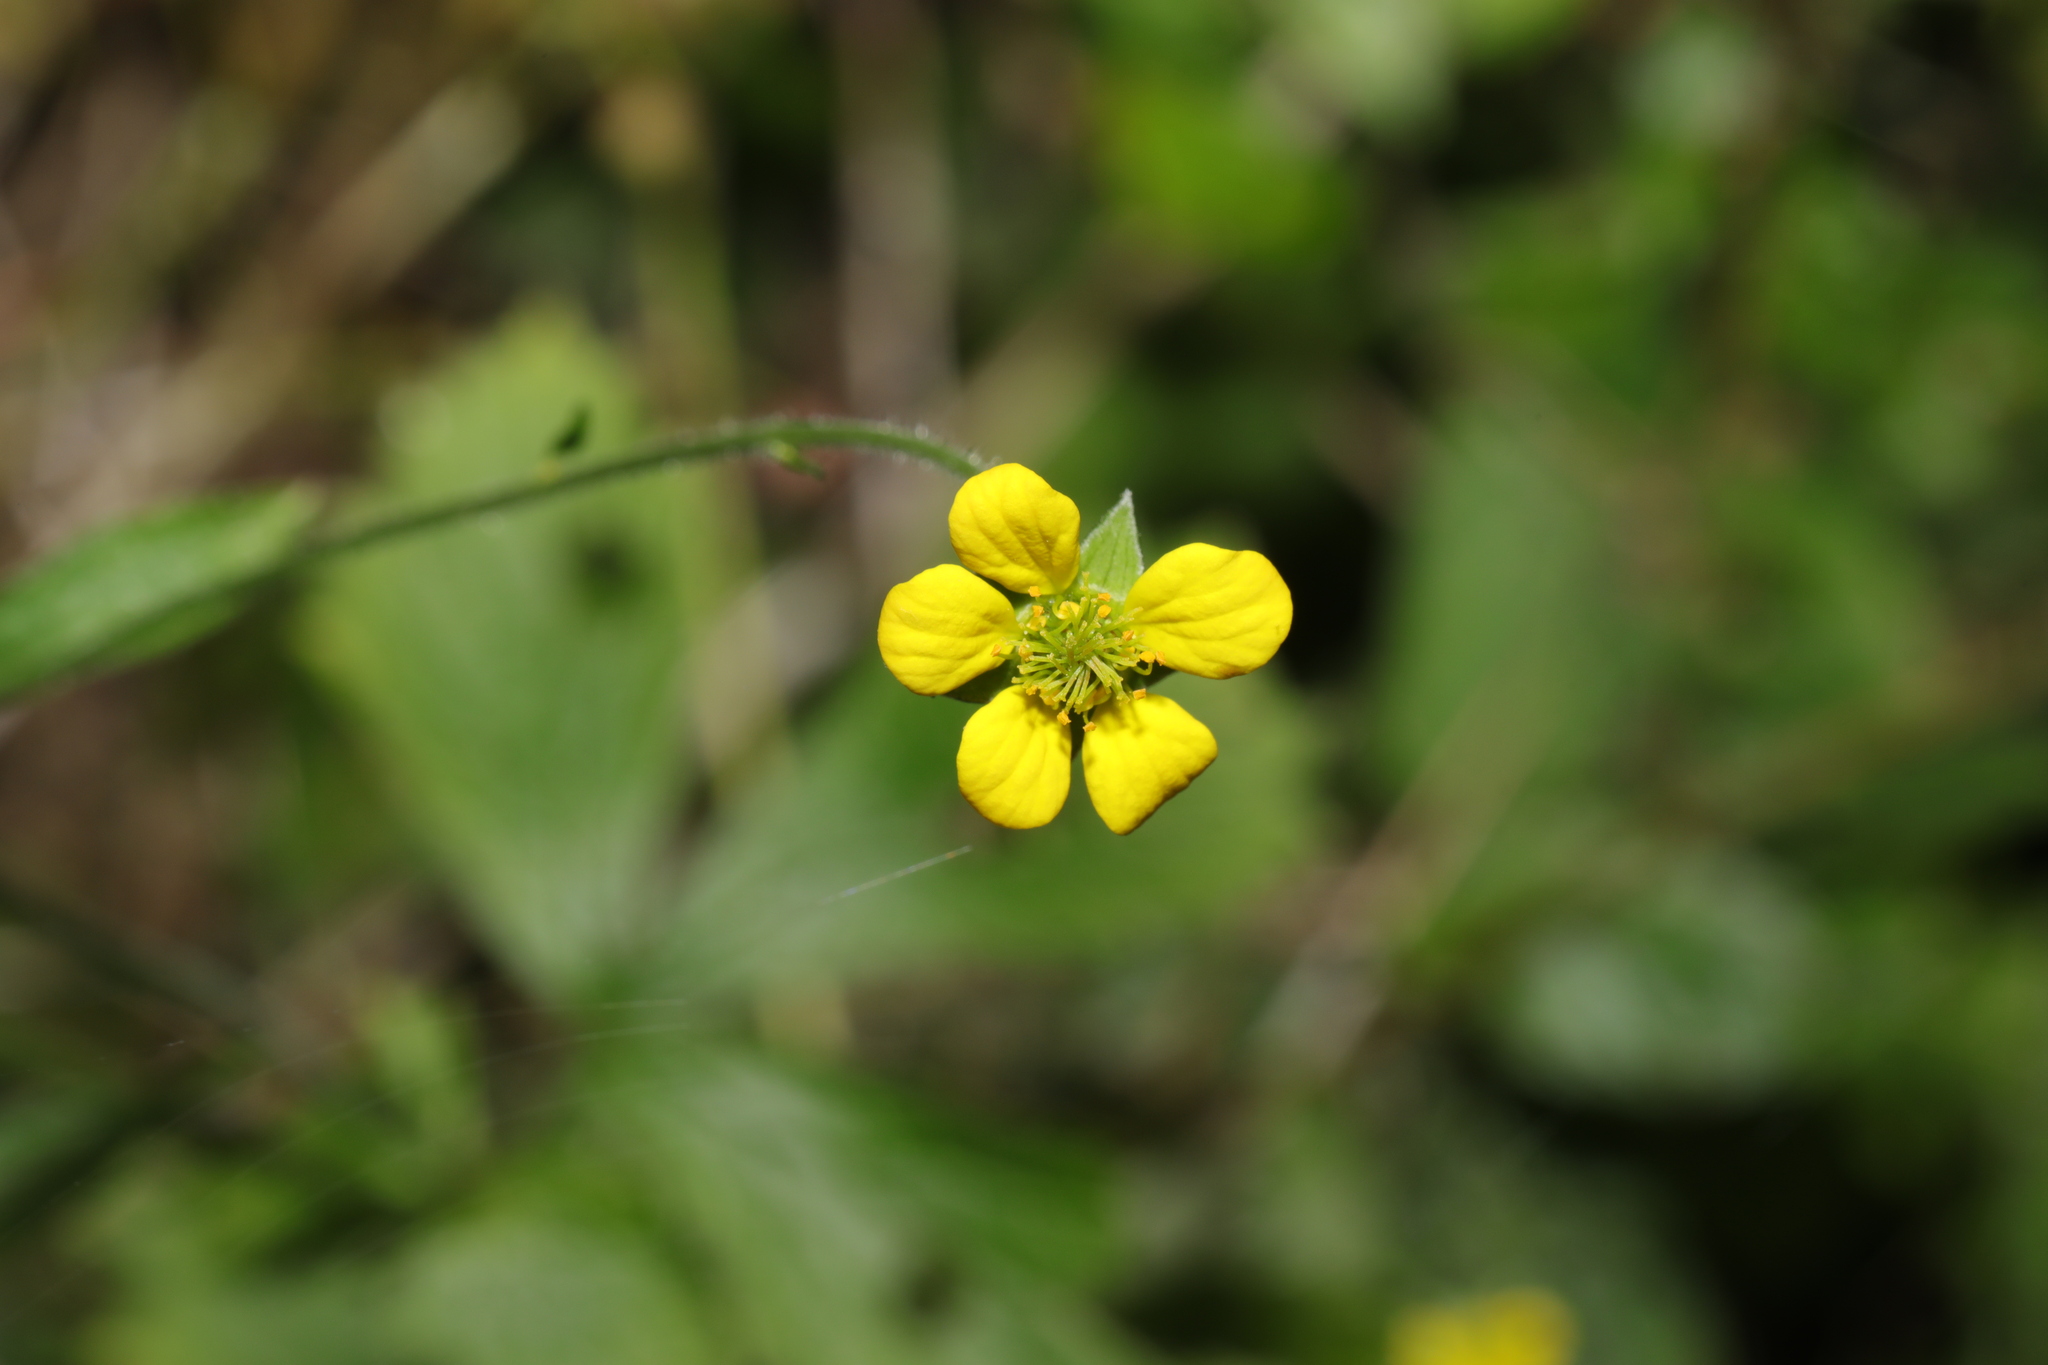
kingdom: Plantae
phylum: Tracheophyta
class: Magnoliopsida
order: Rosales
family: Rosaceae
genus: Geum
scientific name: Geum urbanum
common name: Wood avens
